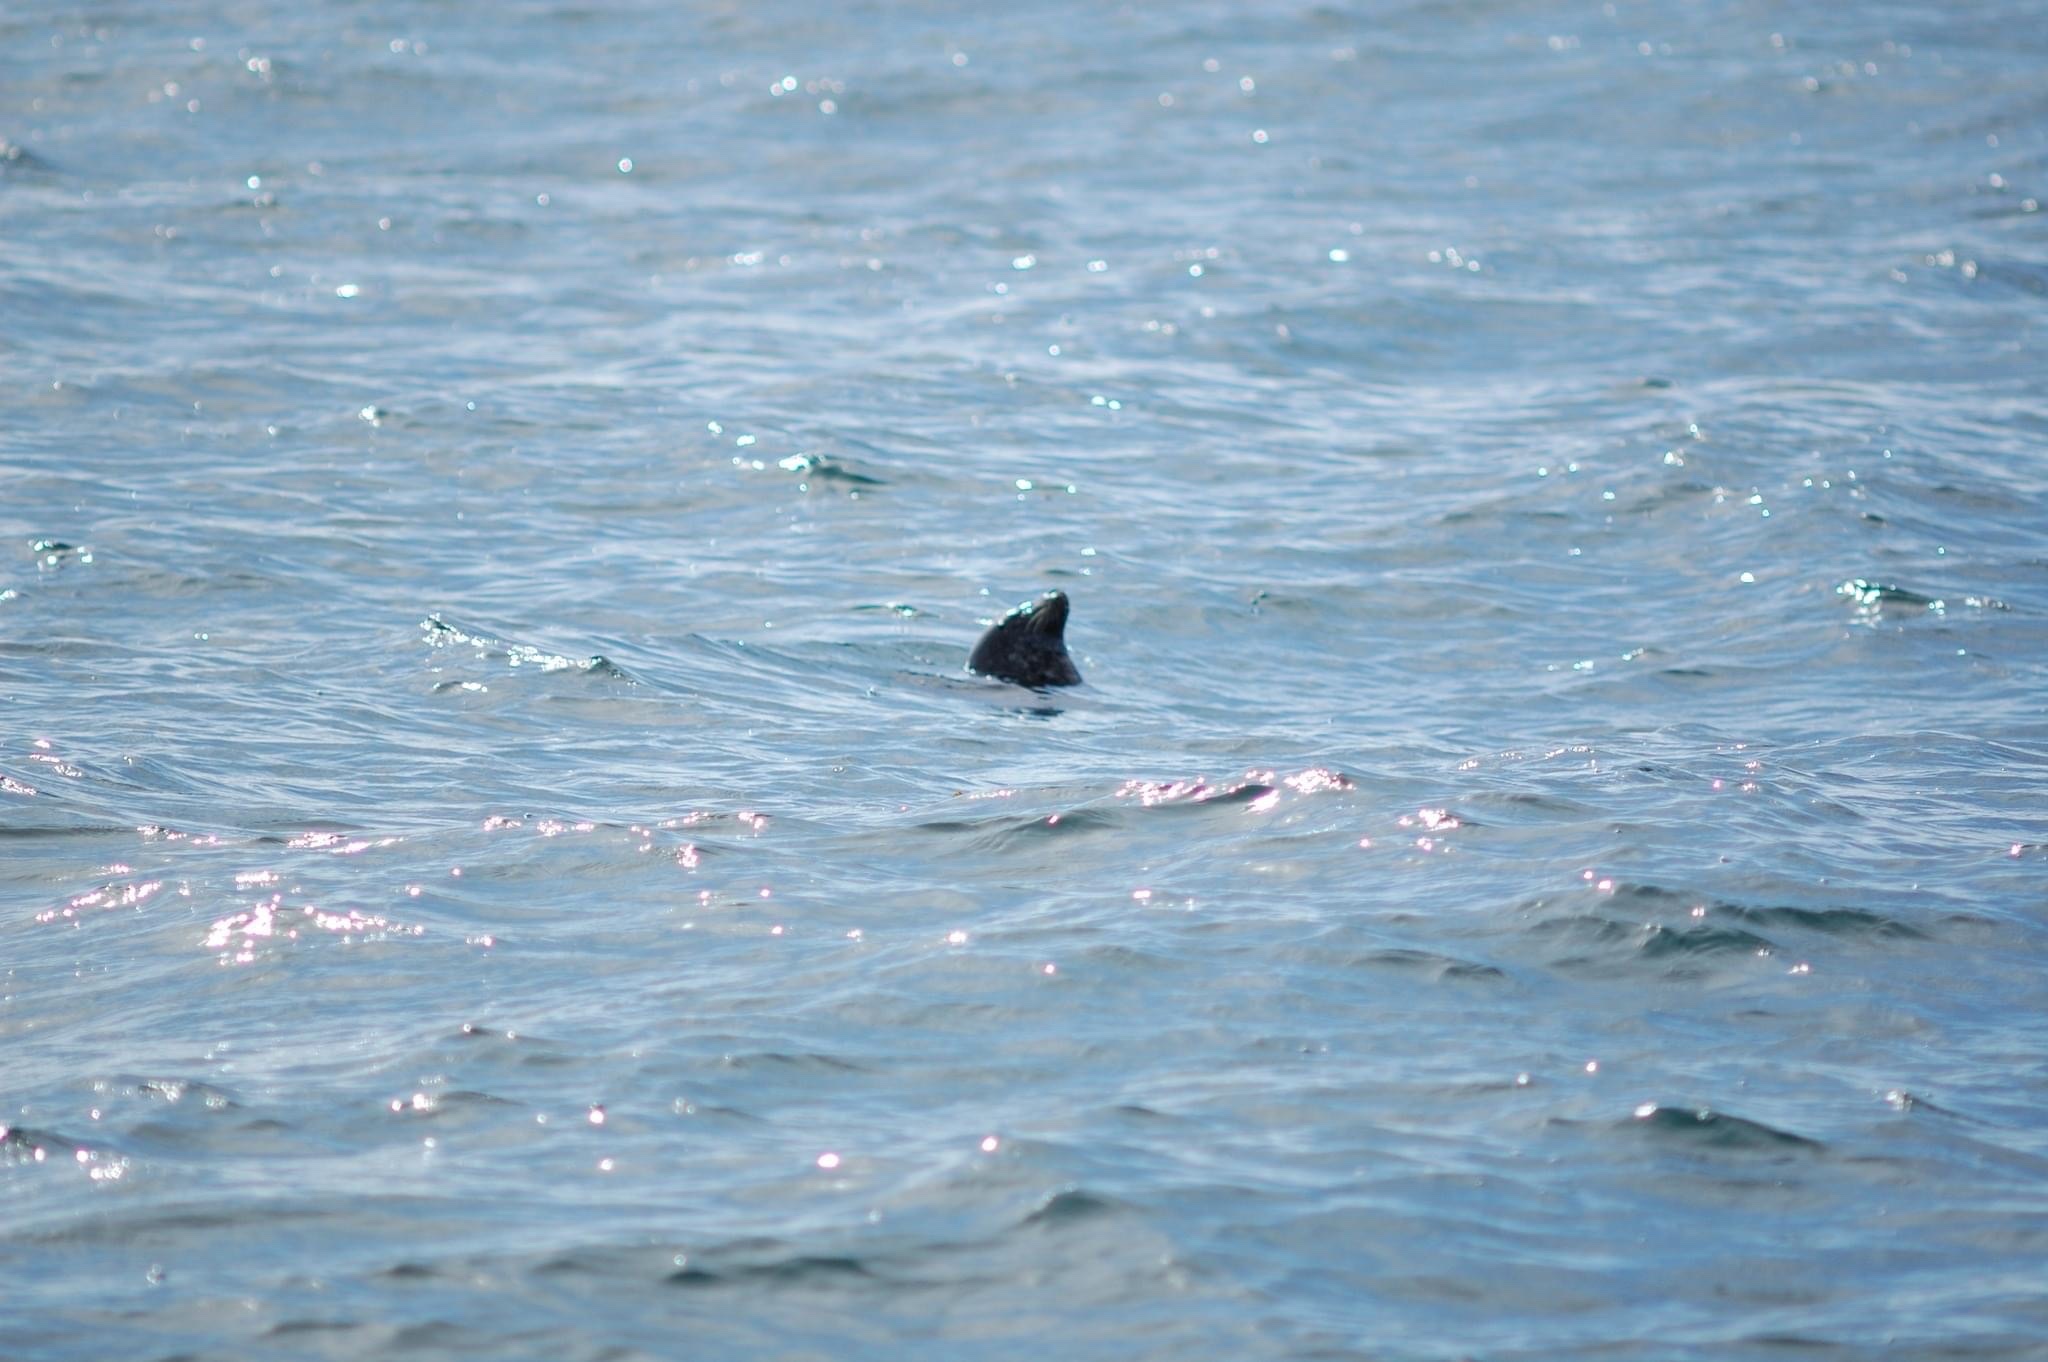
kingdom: Animalia
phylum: Chordata
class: Mammalia
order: Carnivora
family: Phocidae
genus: Phoca
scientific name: Phoca vitulina
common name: Harbor seal
